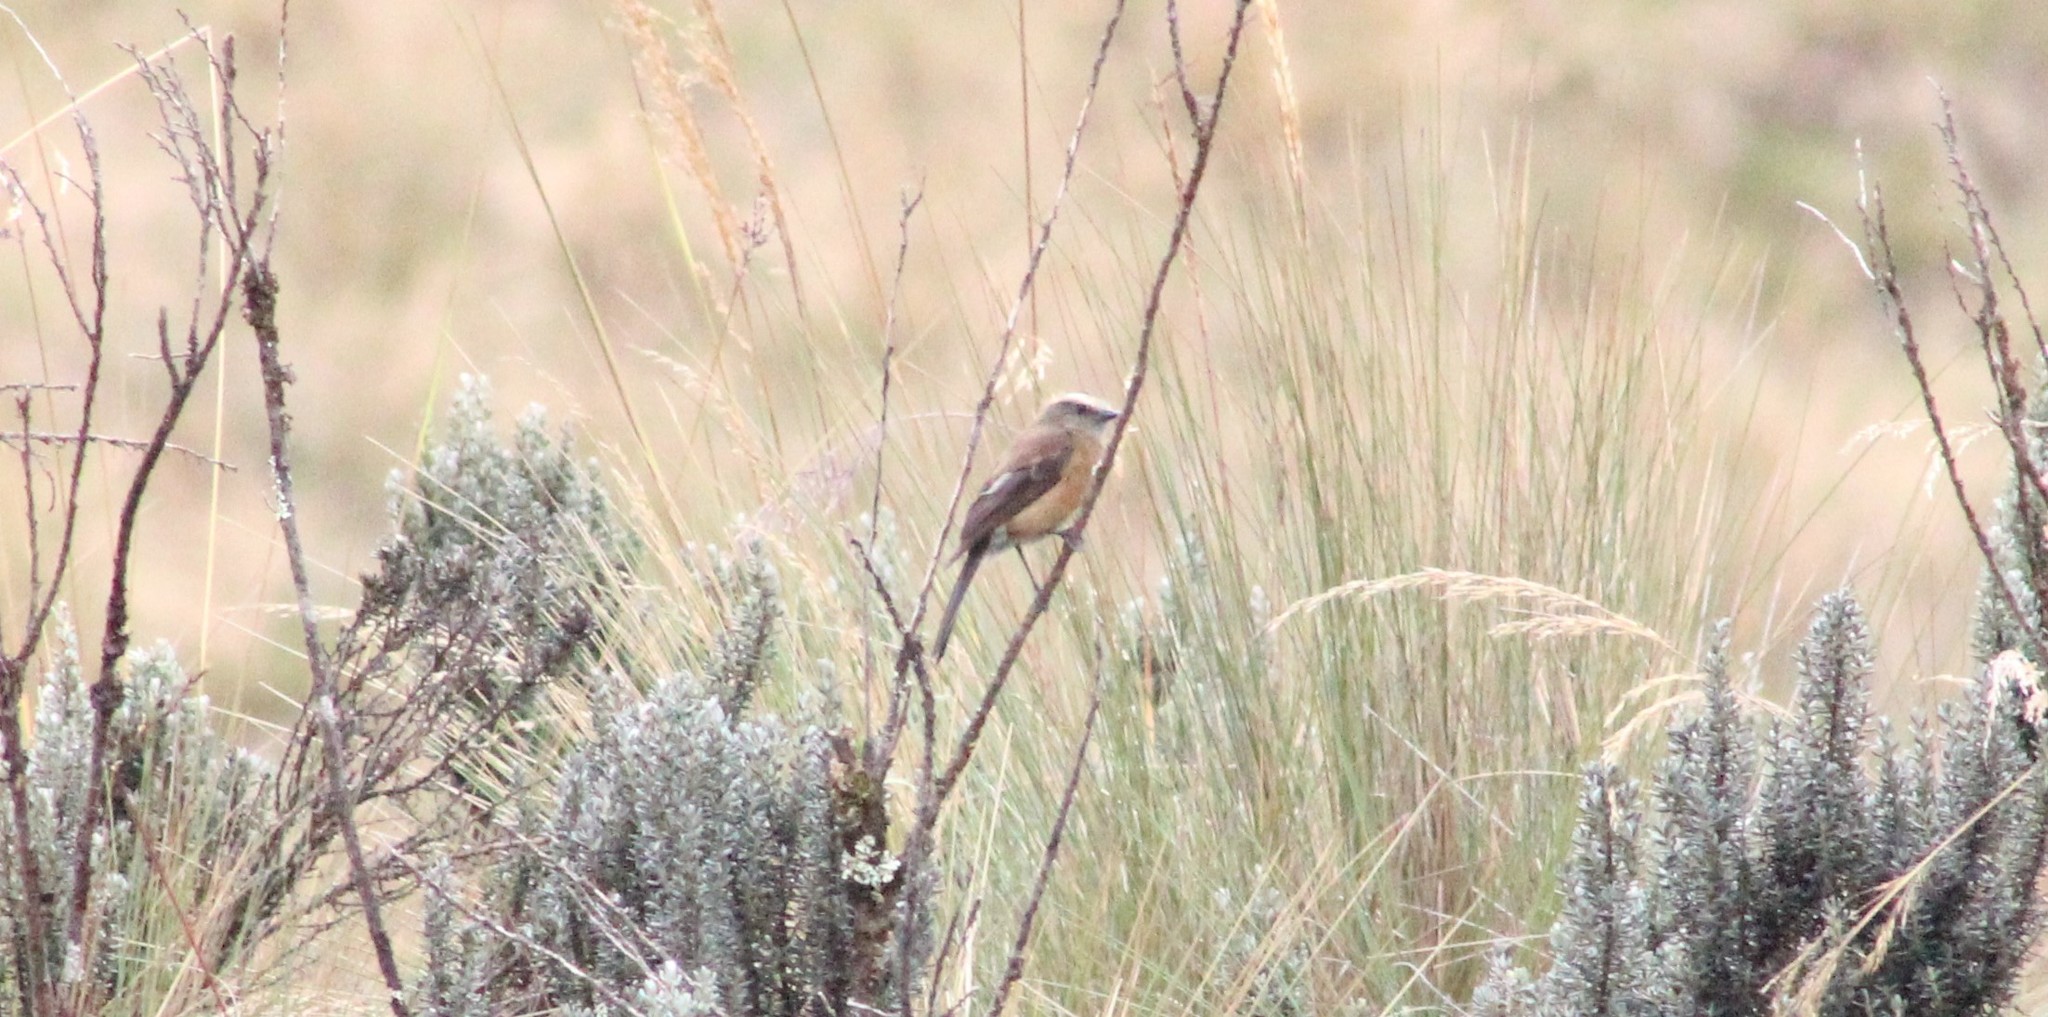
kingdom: Animalia
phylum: Chordata
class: Aves
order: Passeriformes
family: Tyrannidae
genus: Ochthoeca
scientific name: Ochthoeca fumicolor
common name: Brown-backed chat-tyrant
